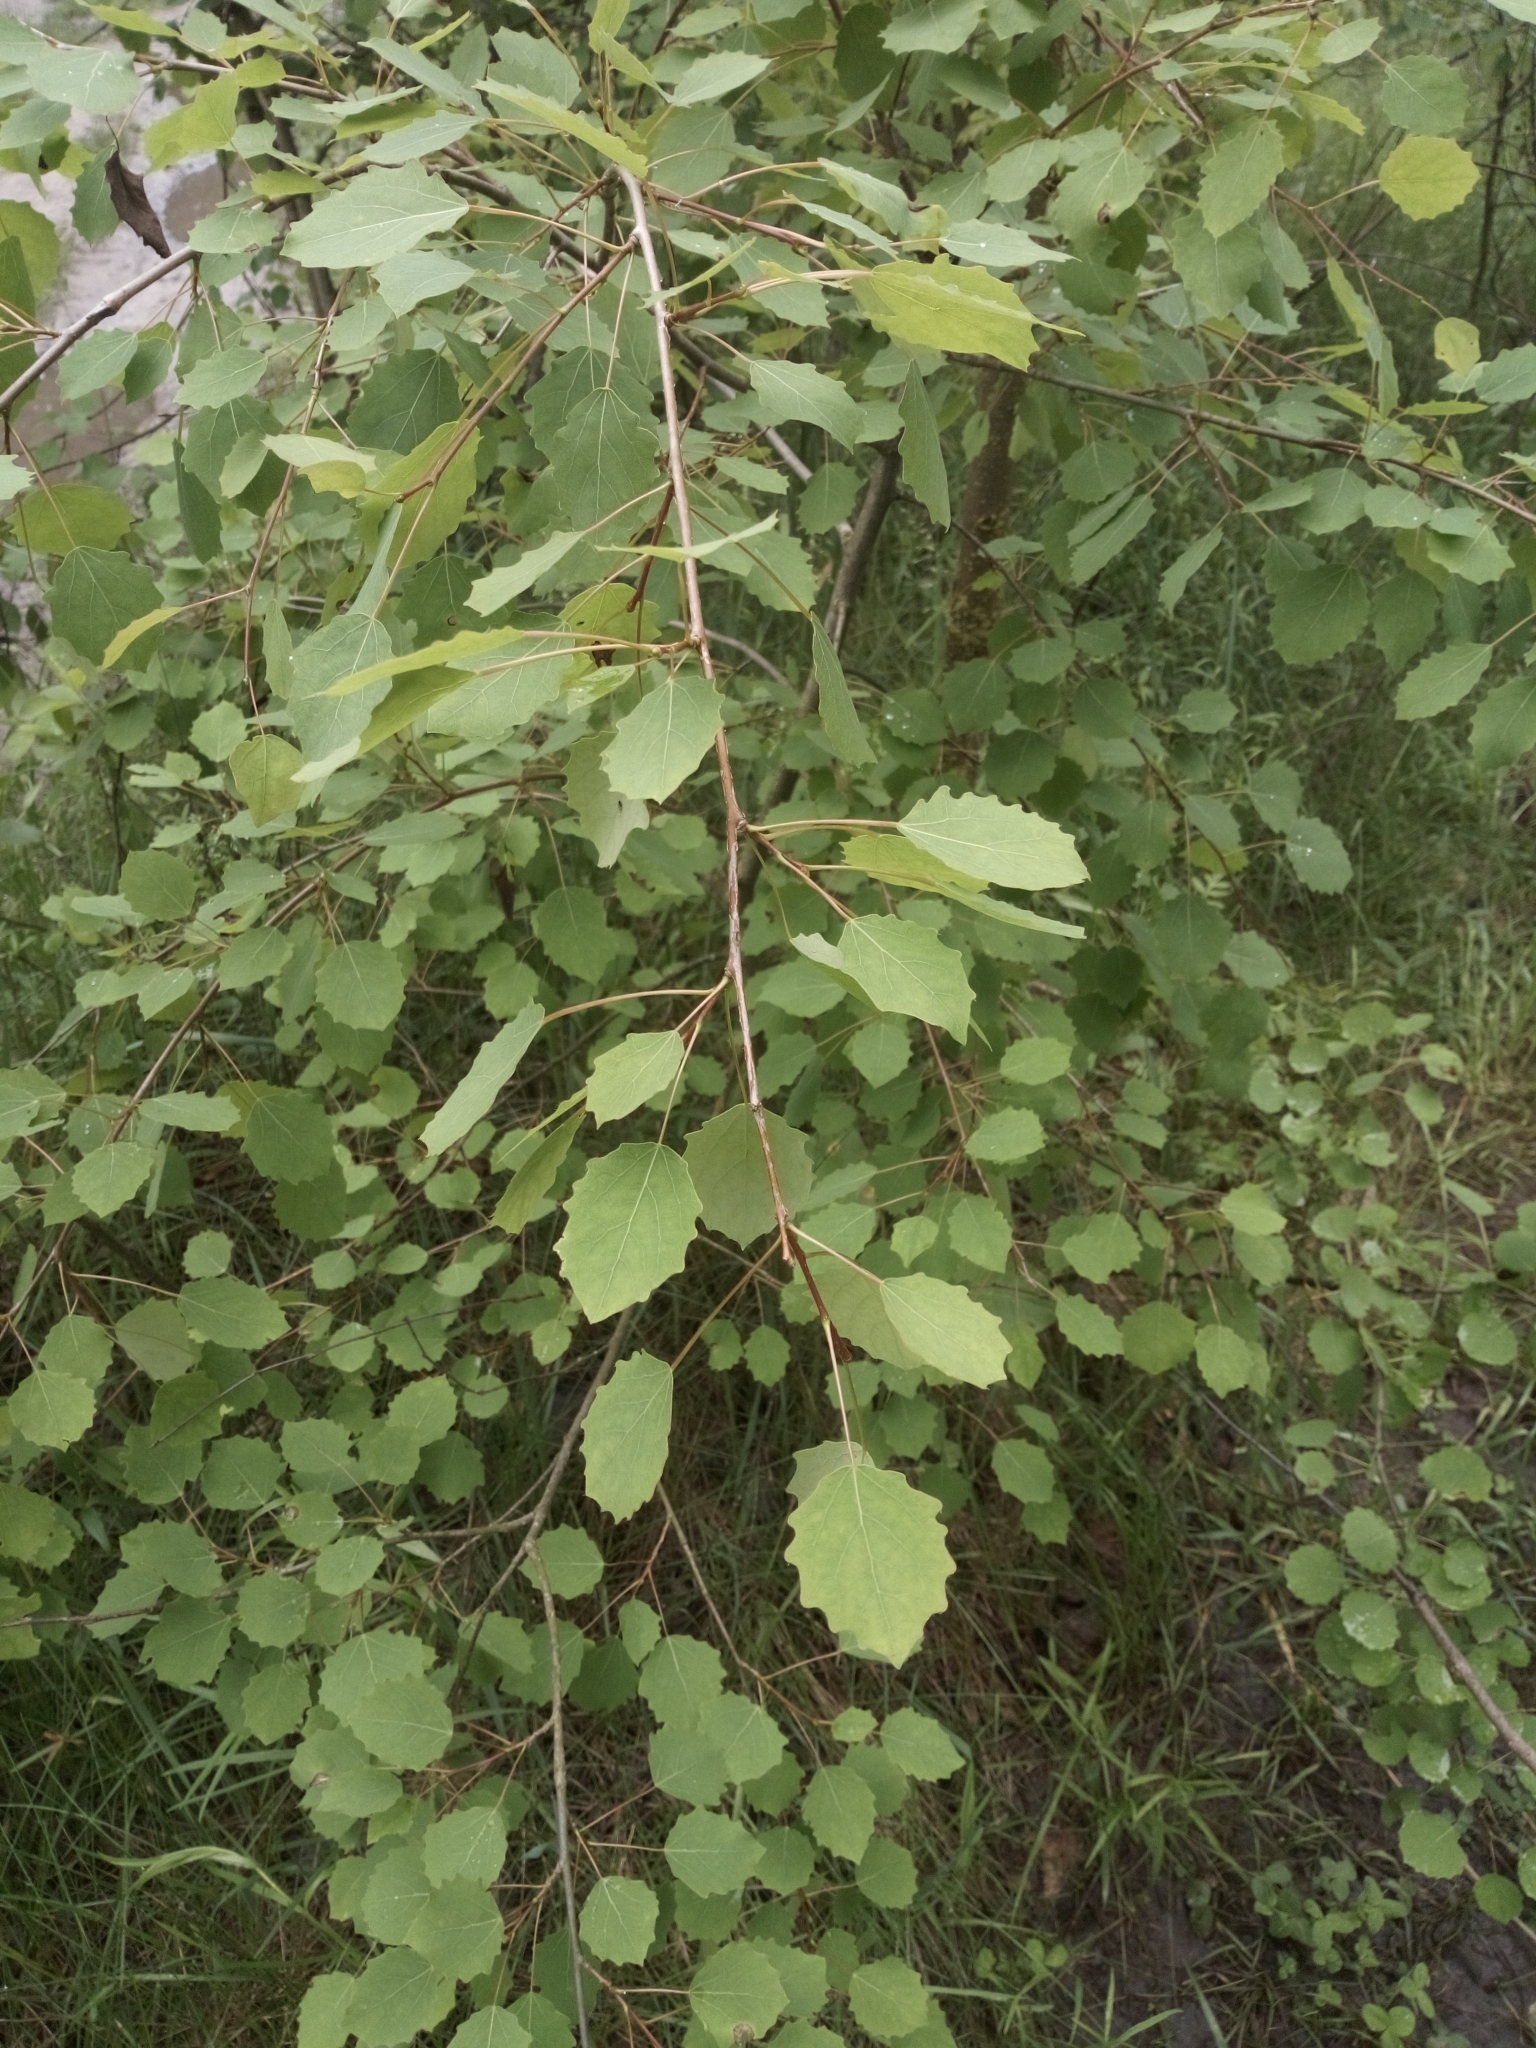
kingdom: Plantae
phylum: Tracheophyta
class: Magnoliopsida
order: Malpighiales
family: Salicaceae
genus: Populus
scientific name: Populus tremula
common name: European aspen
